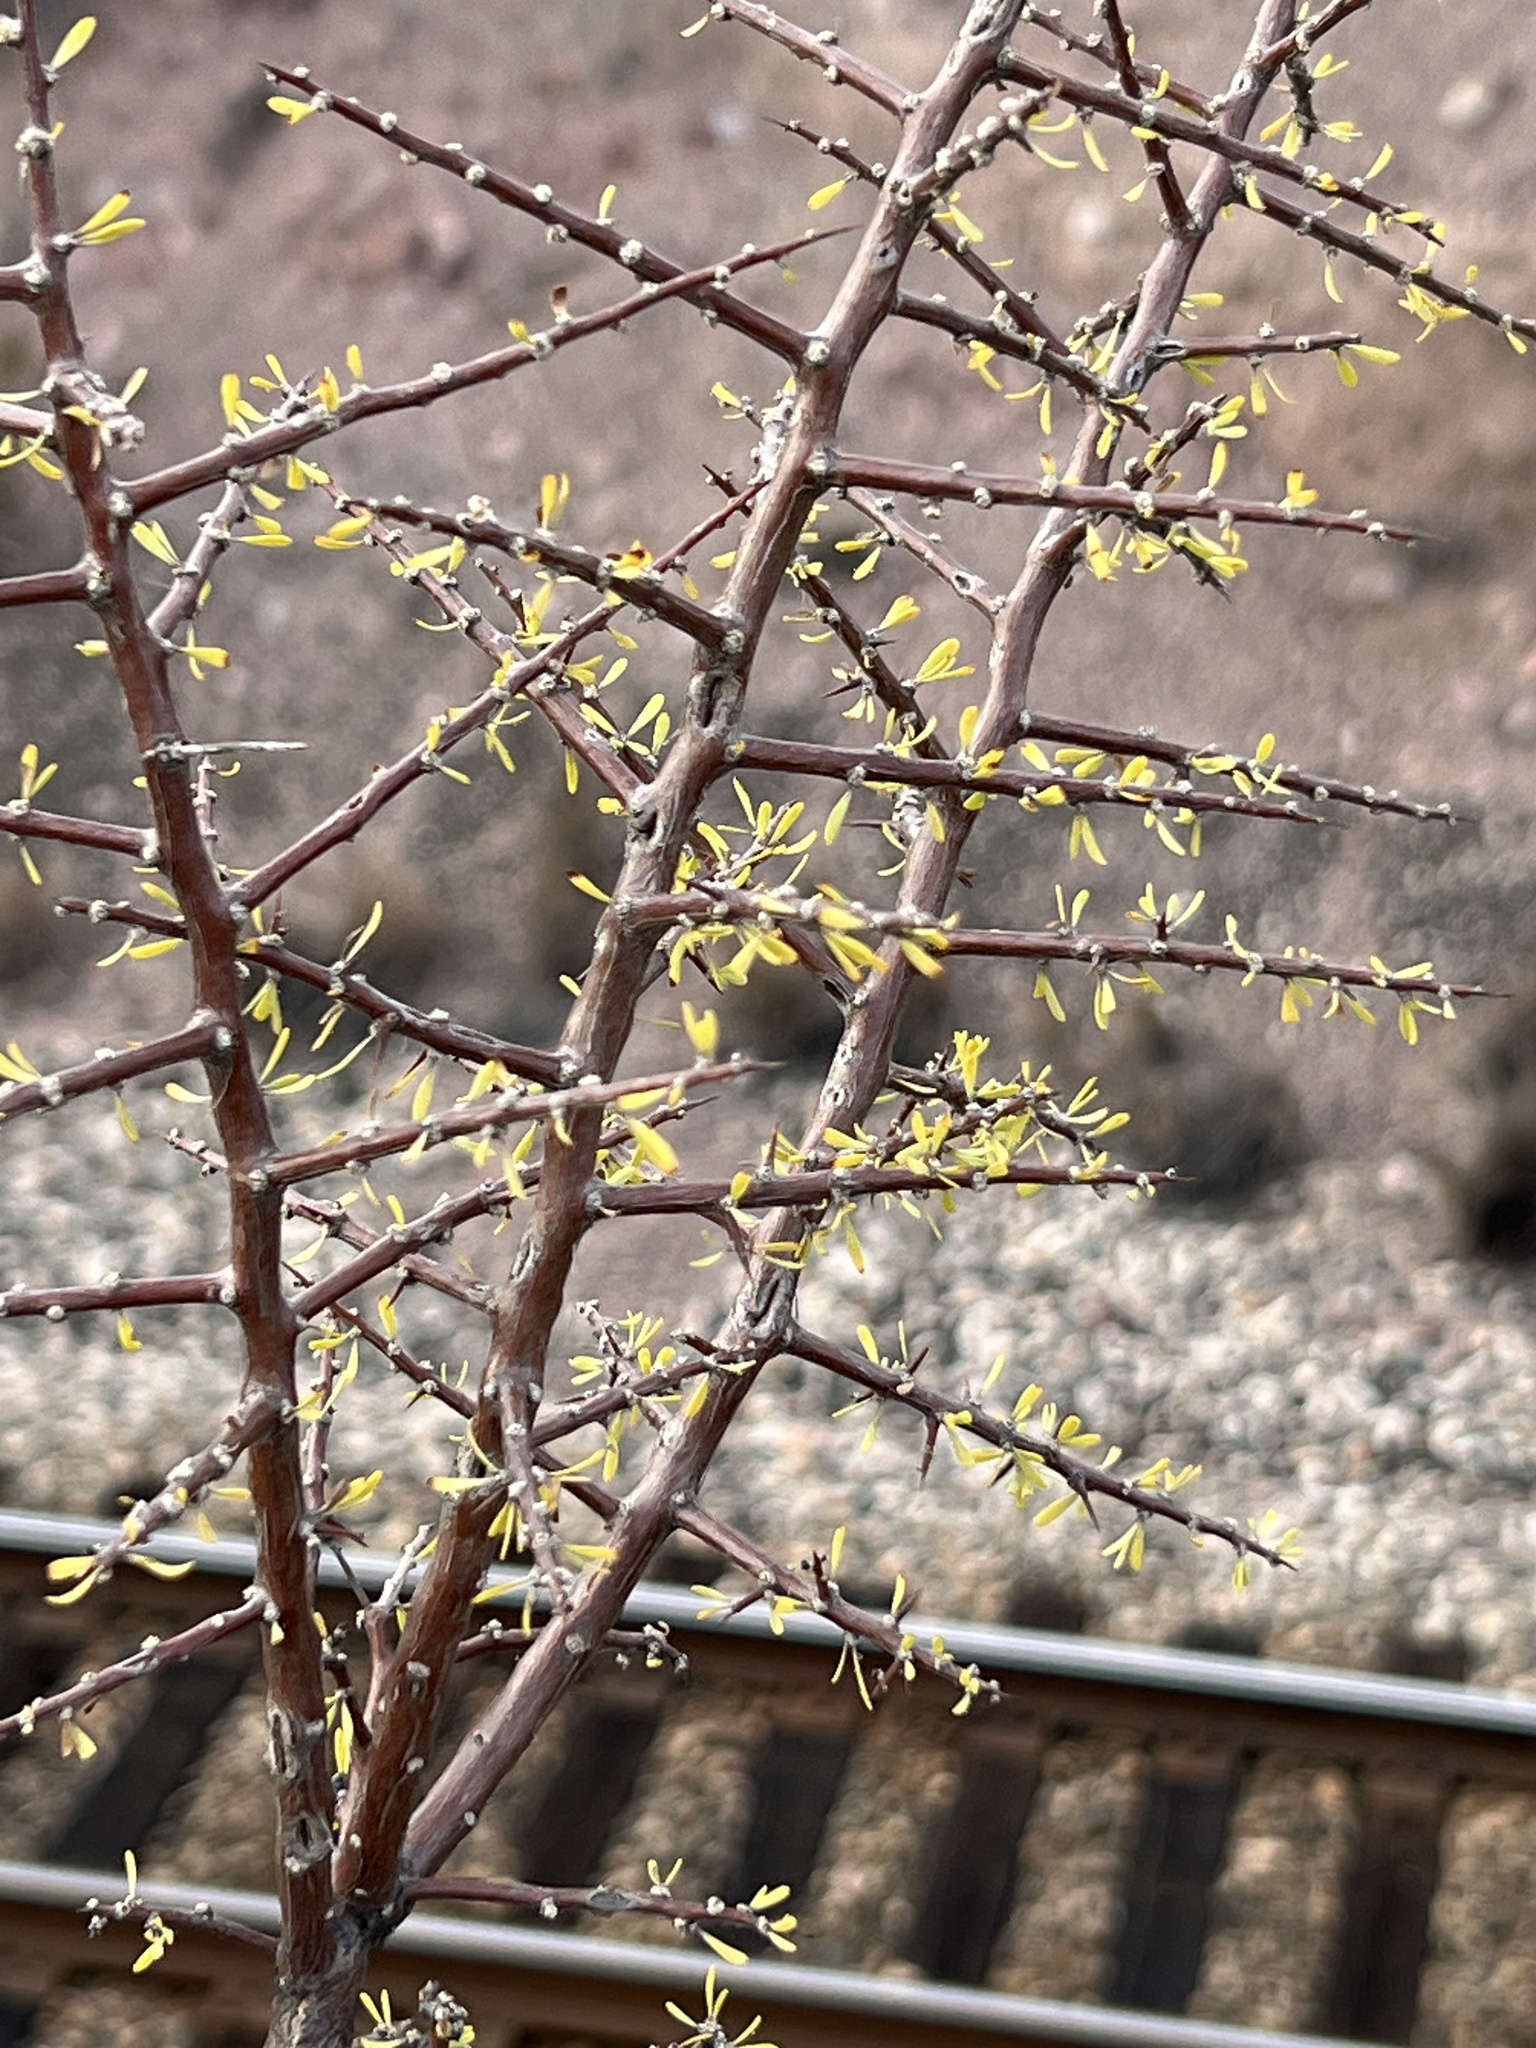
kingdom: Plantae
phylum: Tracheophyta
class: Magnoliopsida
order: Solanales
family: Solanaceae
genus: Lycium
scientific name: Lycium berlandieri
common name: Berlandier wolfberry
